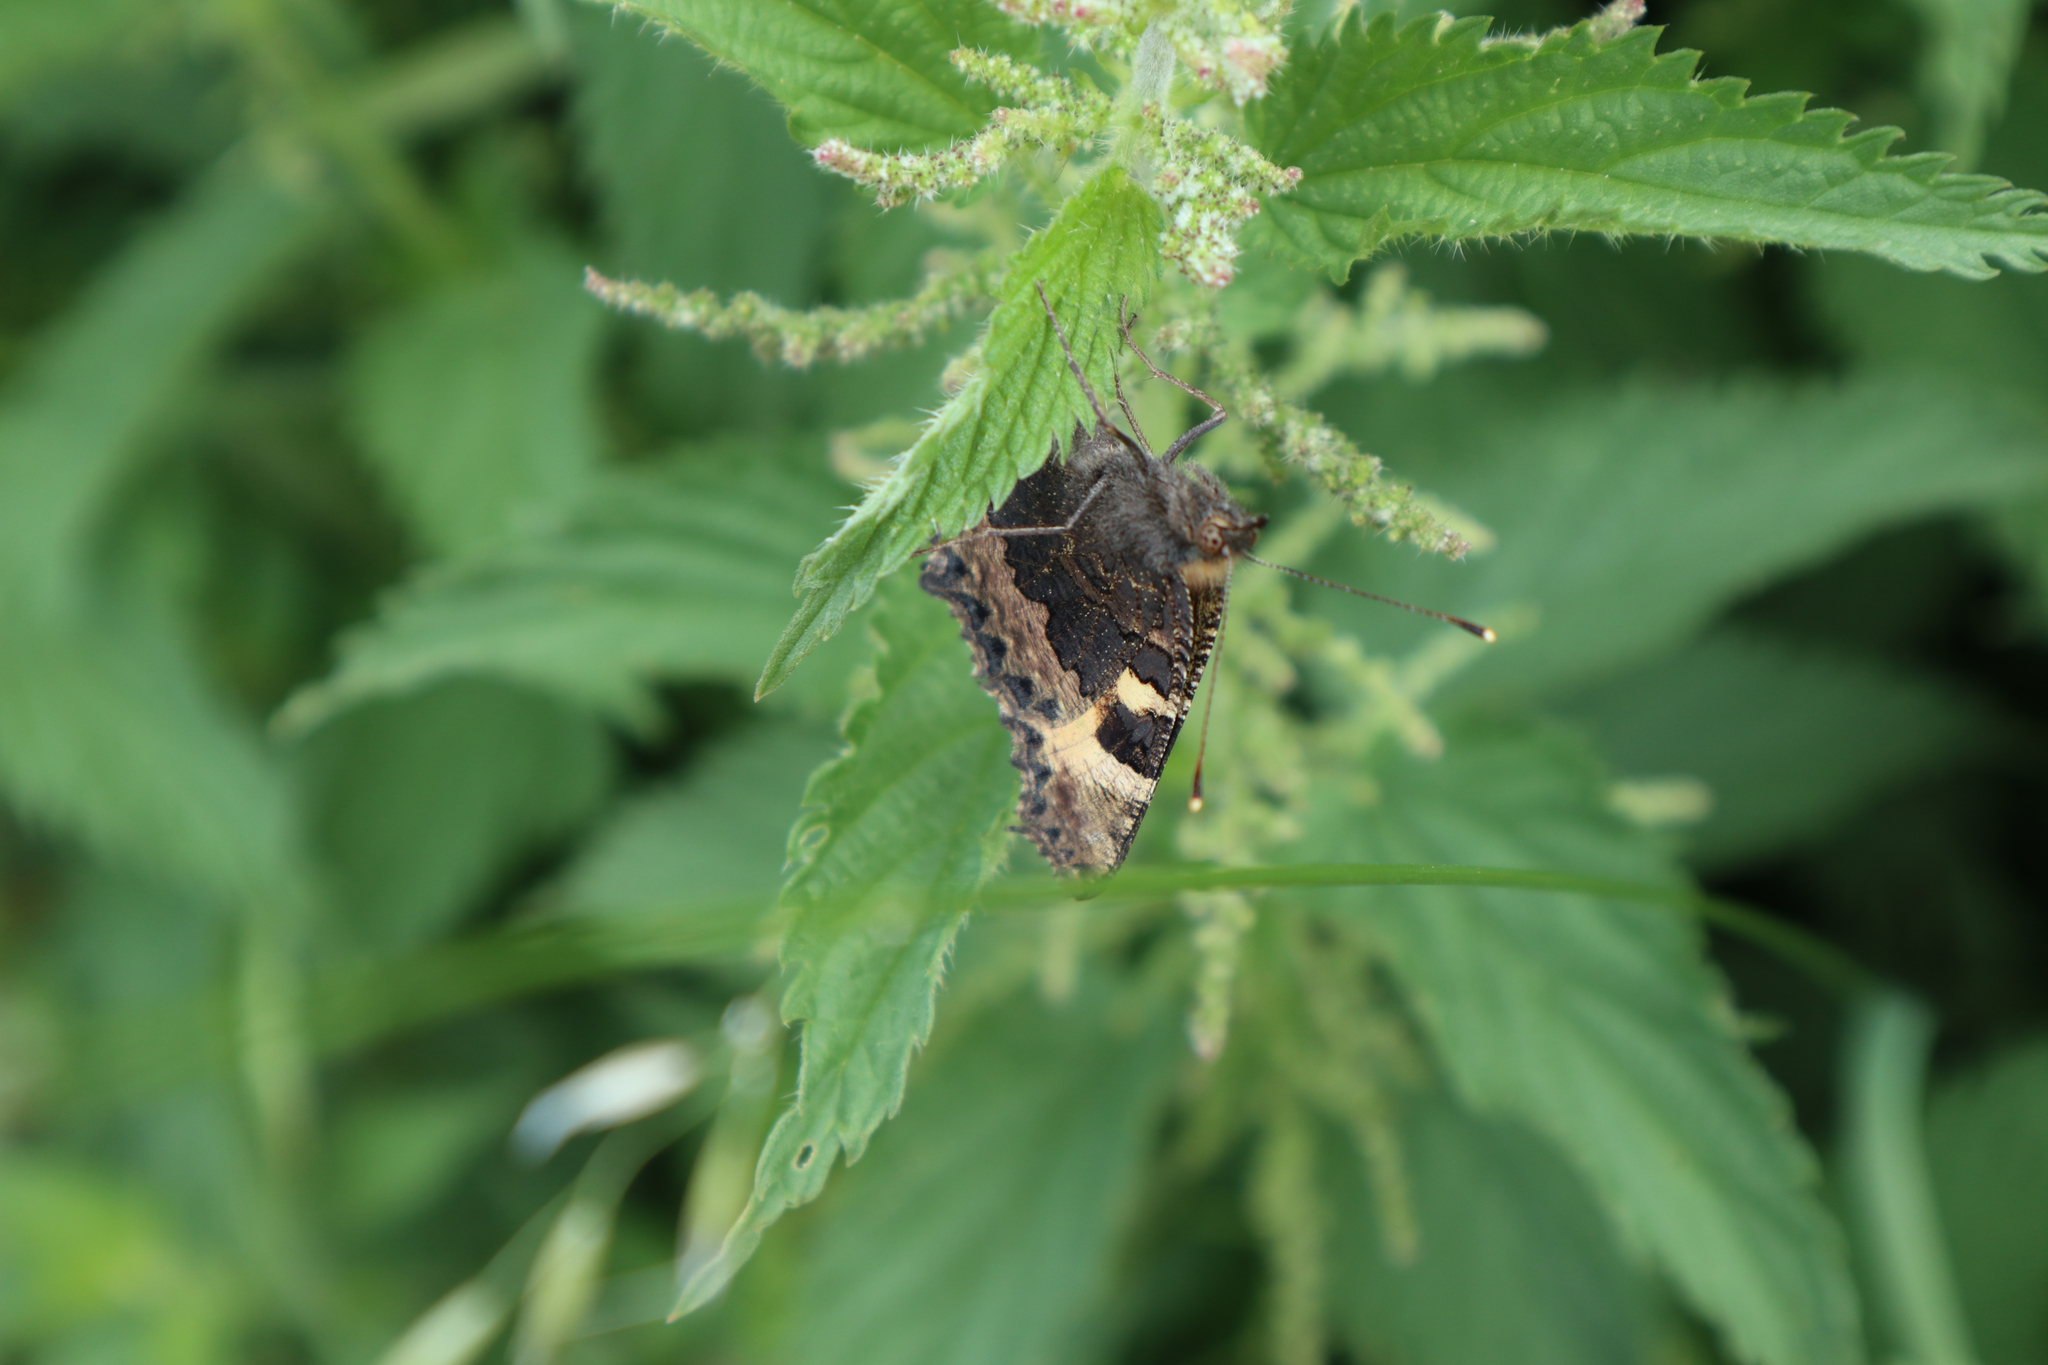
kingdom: Animalia
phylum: Arthropoda
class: Insecta
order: Lepidoptera
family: Nymphalidae
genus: Aglais
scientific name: Aglais urticae
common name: Small tortoiseshell
